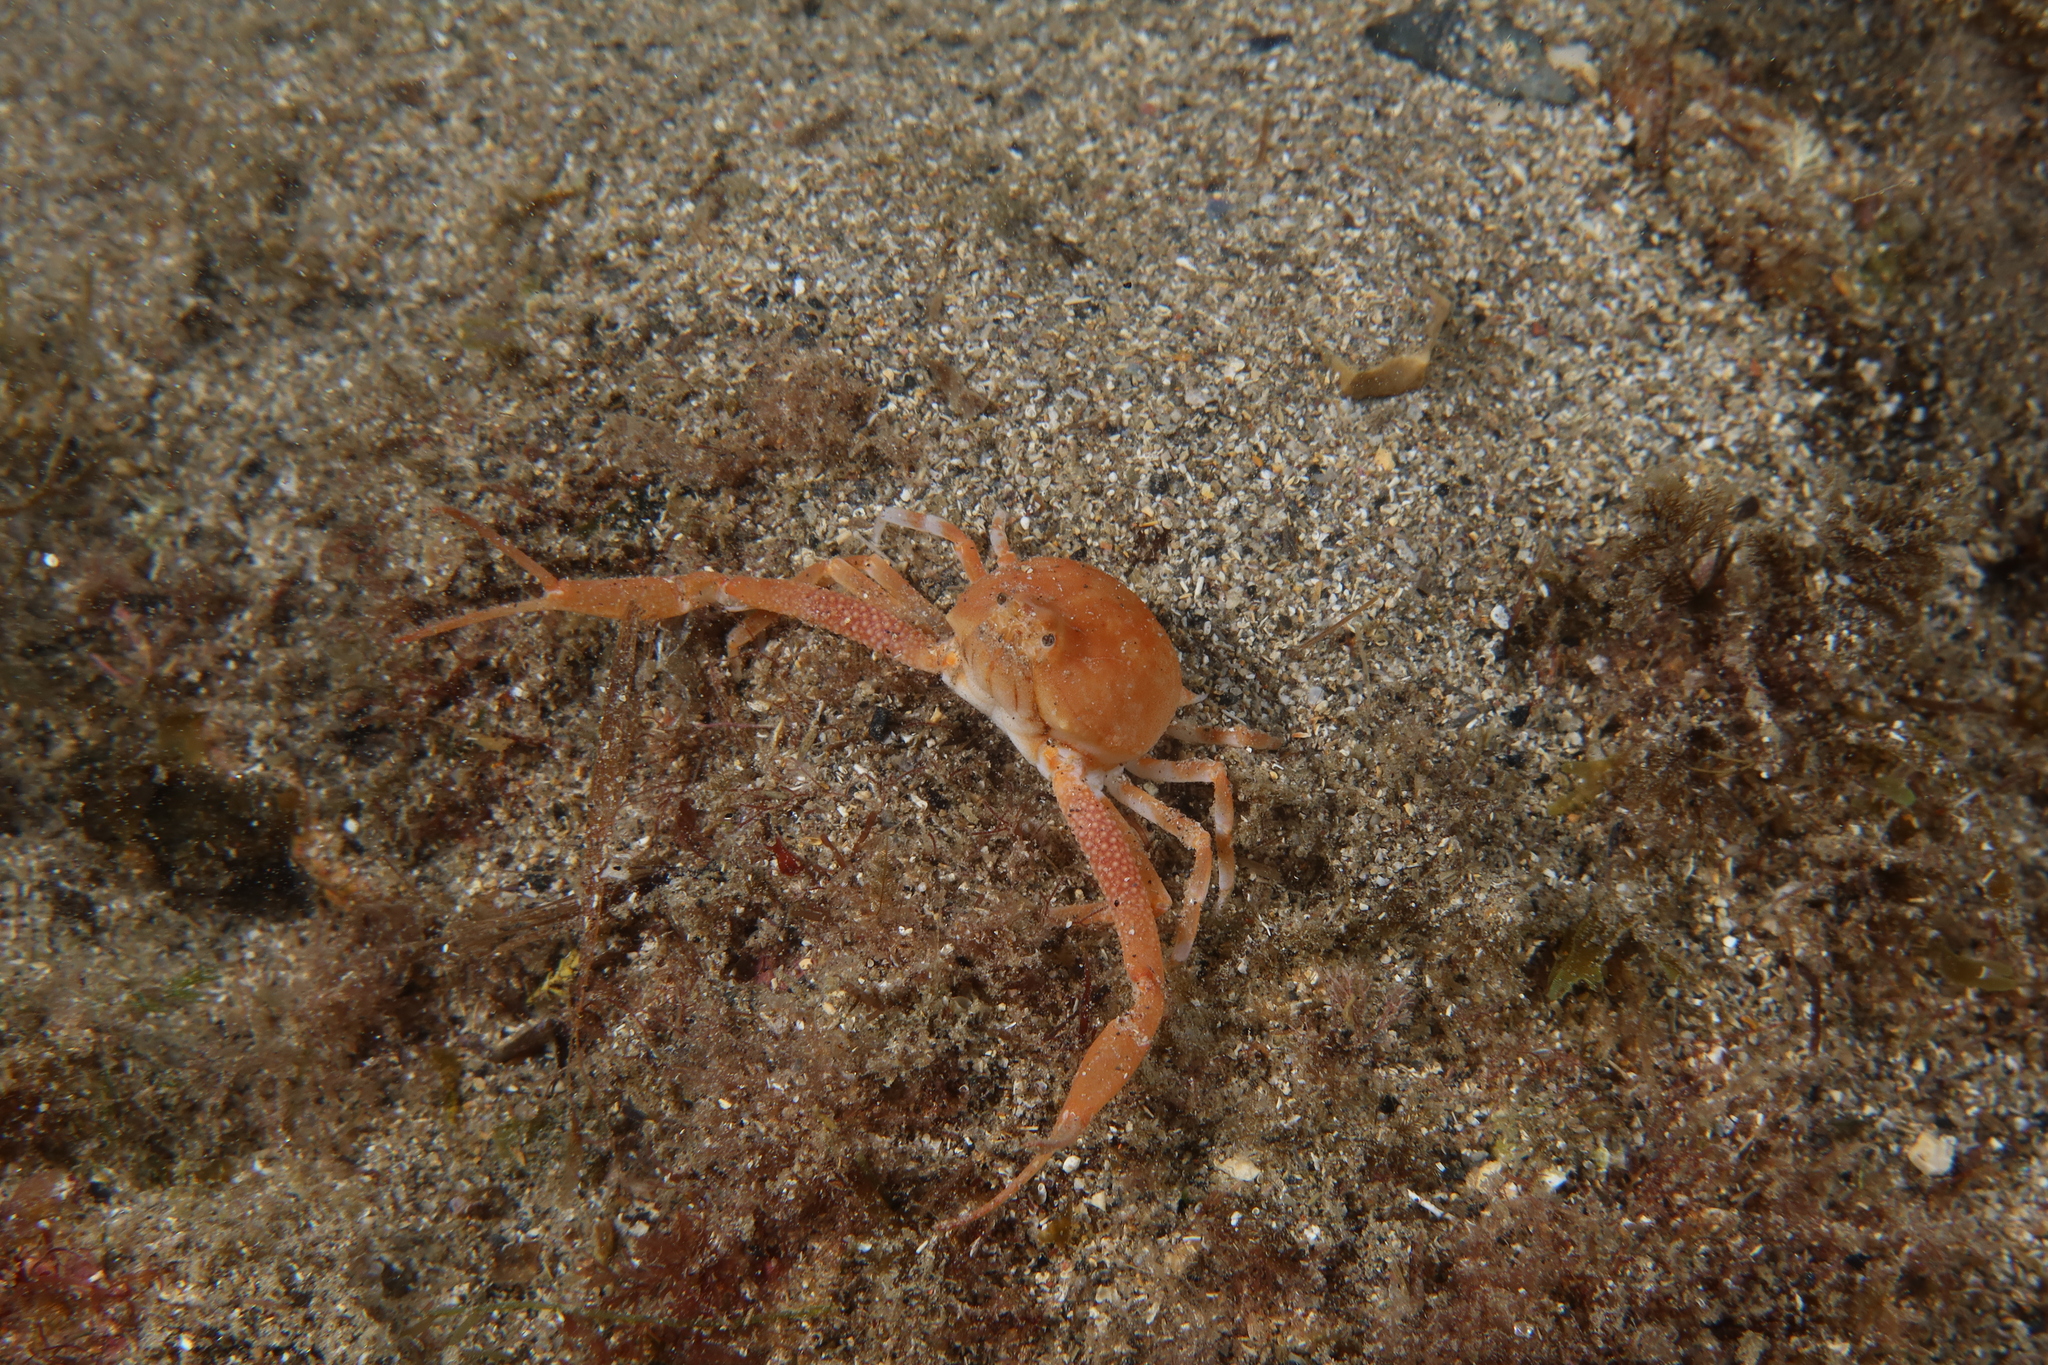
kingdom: Animalia
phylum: Arthropoda
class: Malacostraca
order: Decapoda
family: Leucosiidae
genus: Ilia
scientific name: Ilia nucleus
